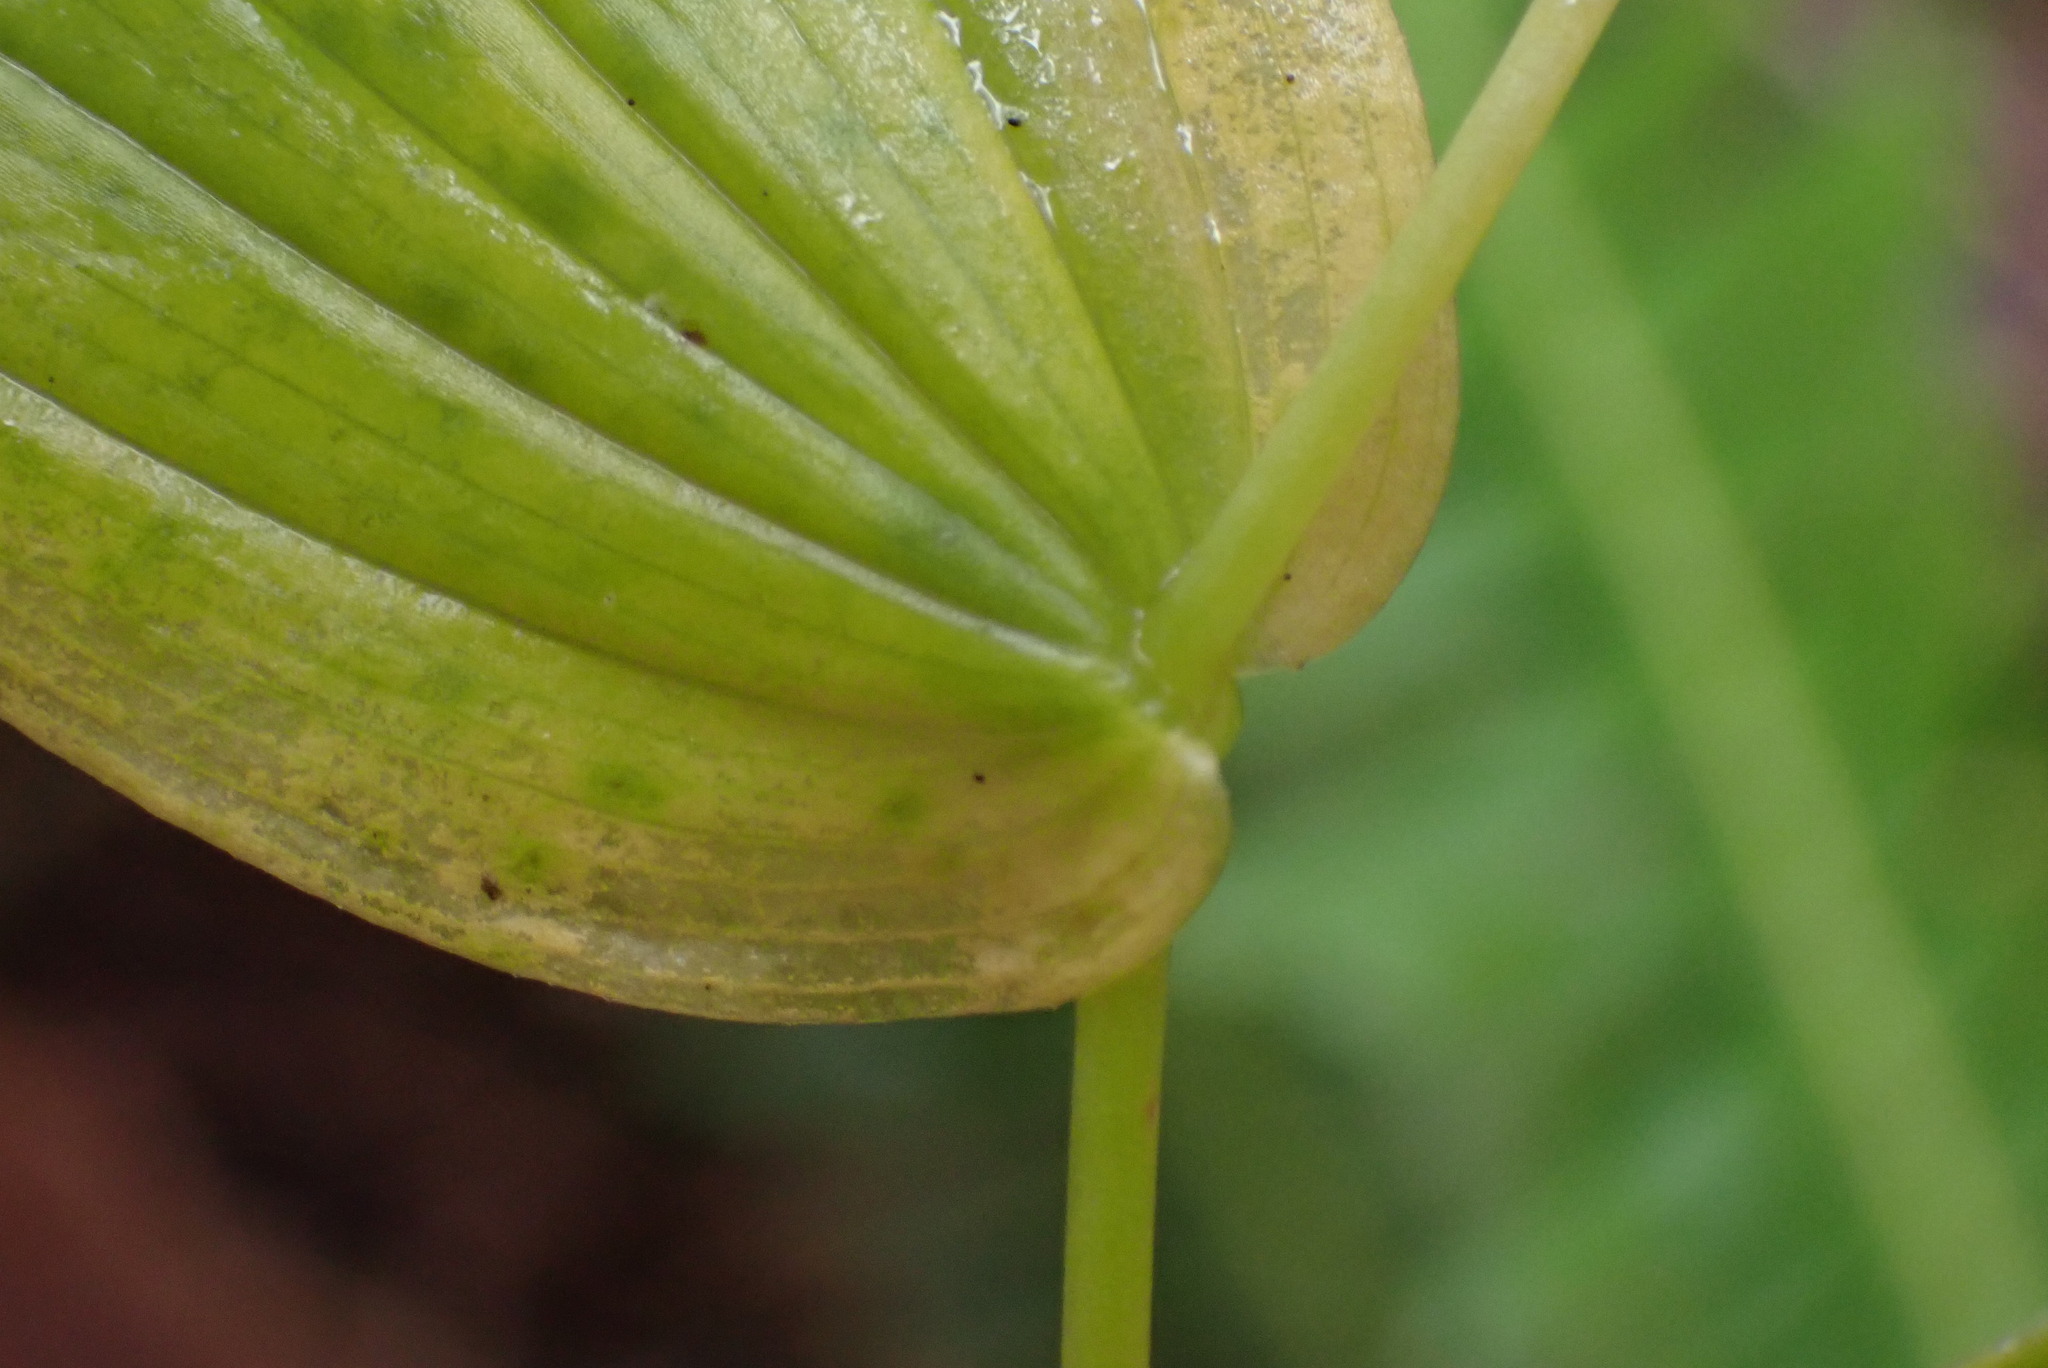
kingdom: Plantae
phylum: Tracheophyta
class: Liliopsida
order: Liliales
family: Liliaceae
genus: Streptopus
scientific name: Streptopus amplexifolius
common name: Clasp twisted stalk
